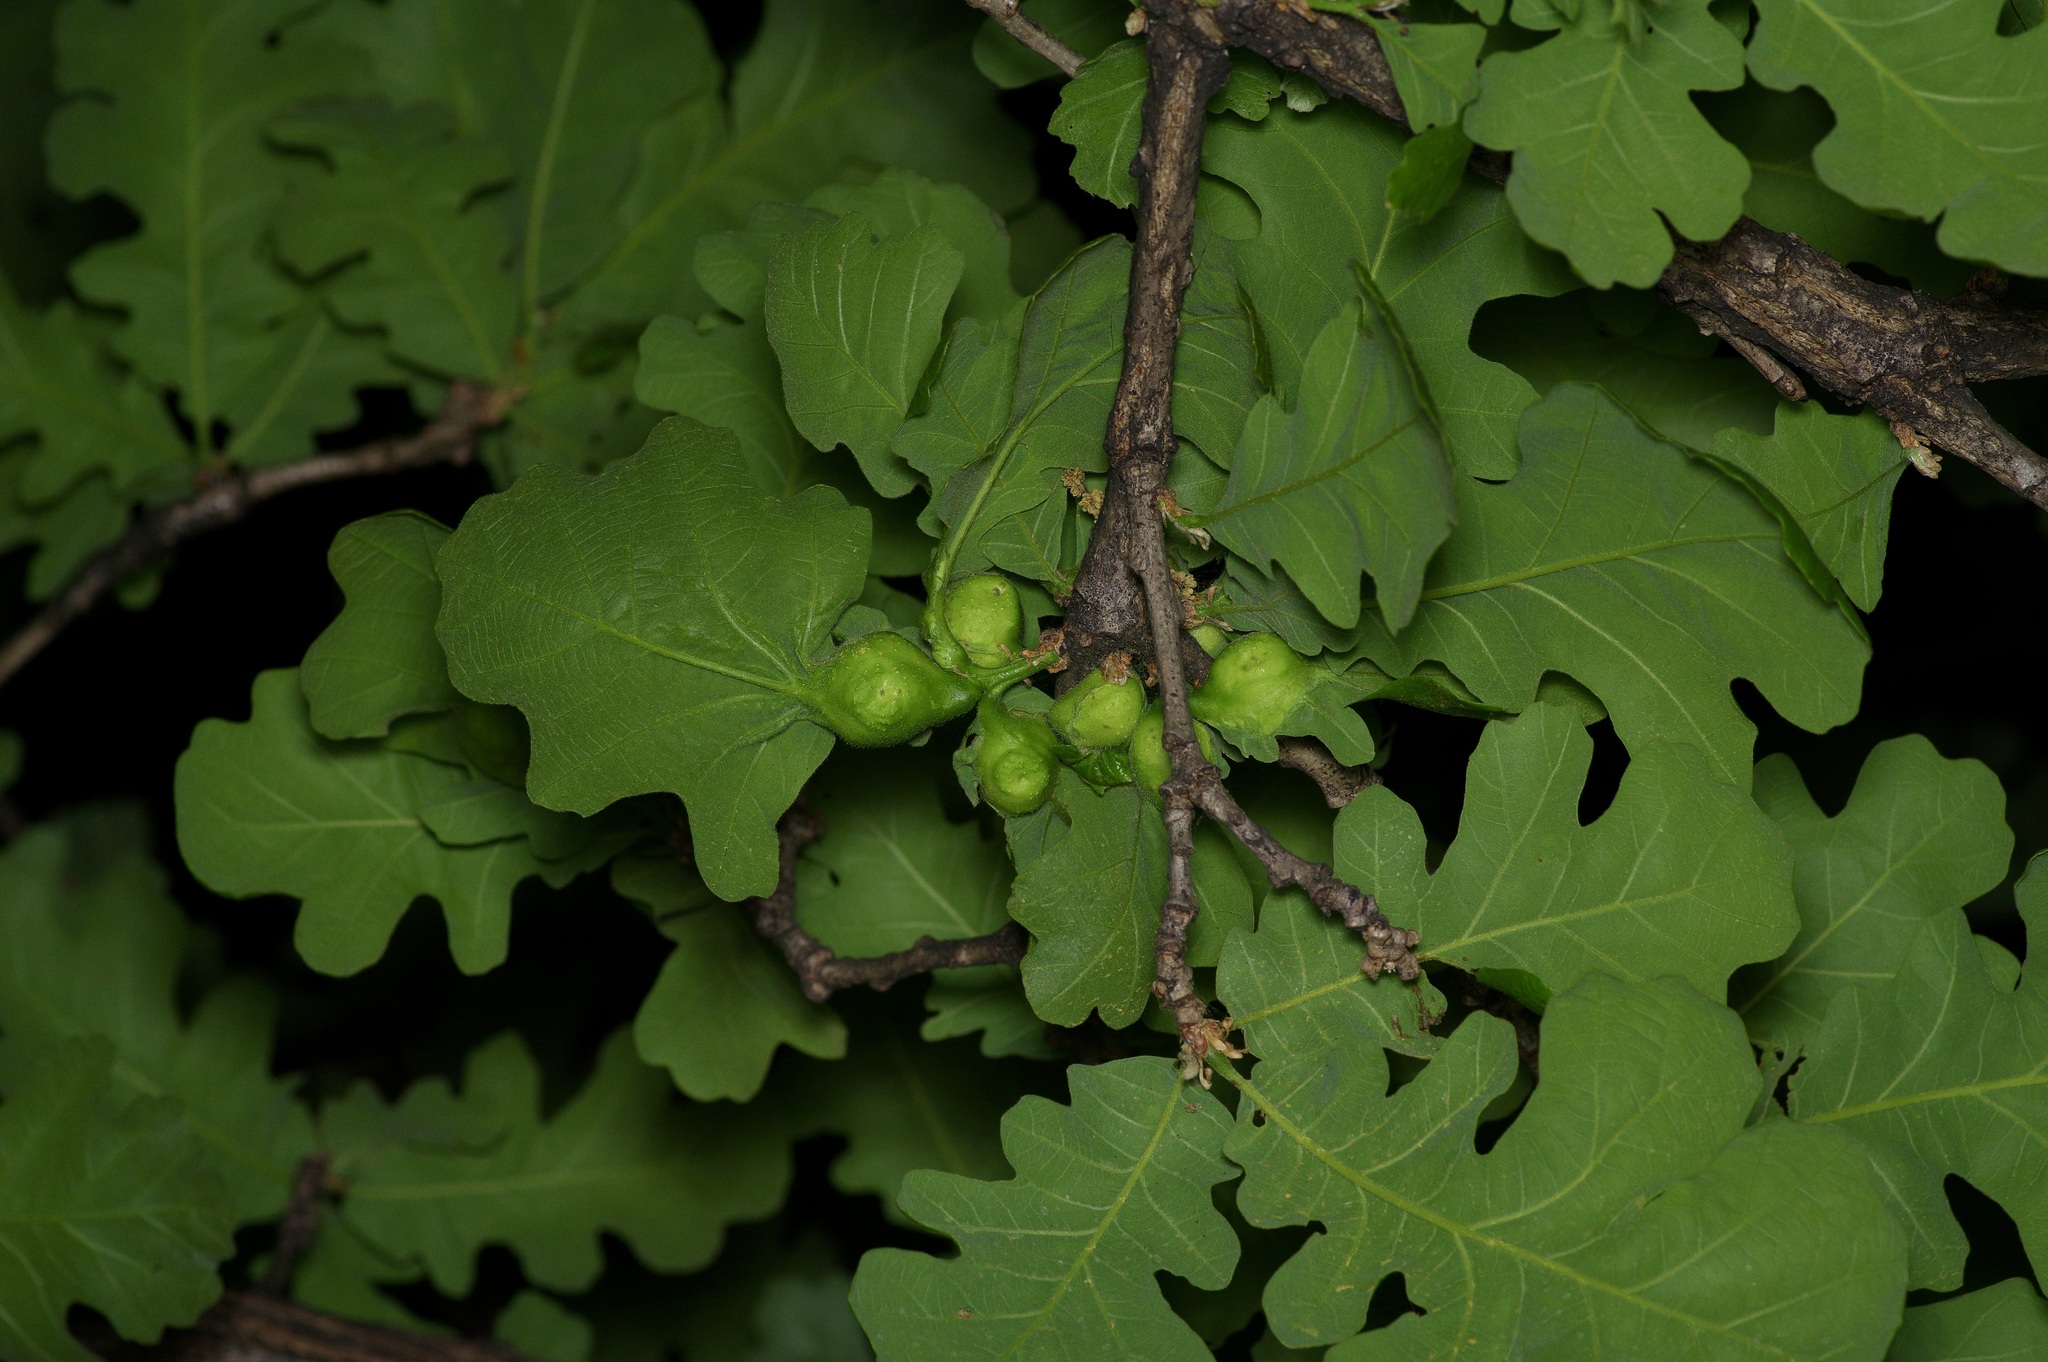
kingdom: Animalia
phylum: Arthropoda
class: Insecta
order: Hymenoptera
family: Cynipidae
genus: Andricus
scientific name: Andricus
